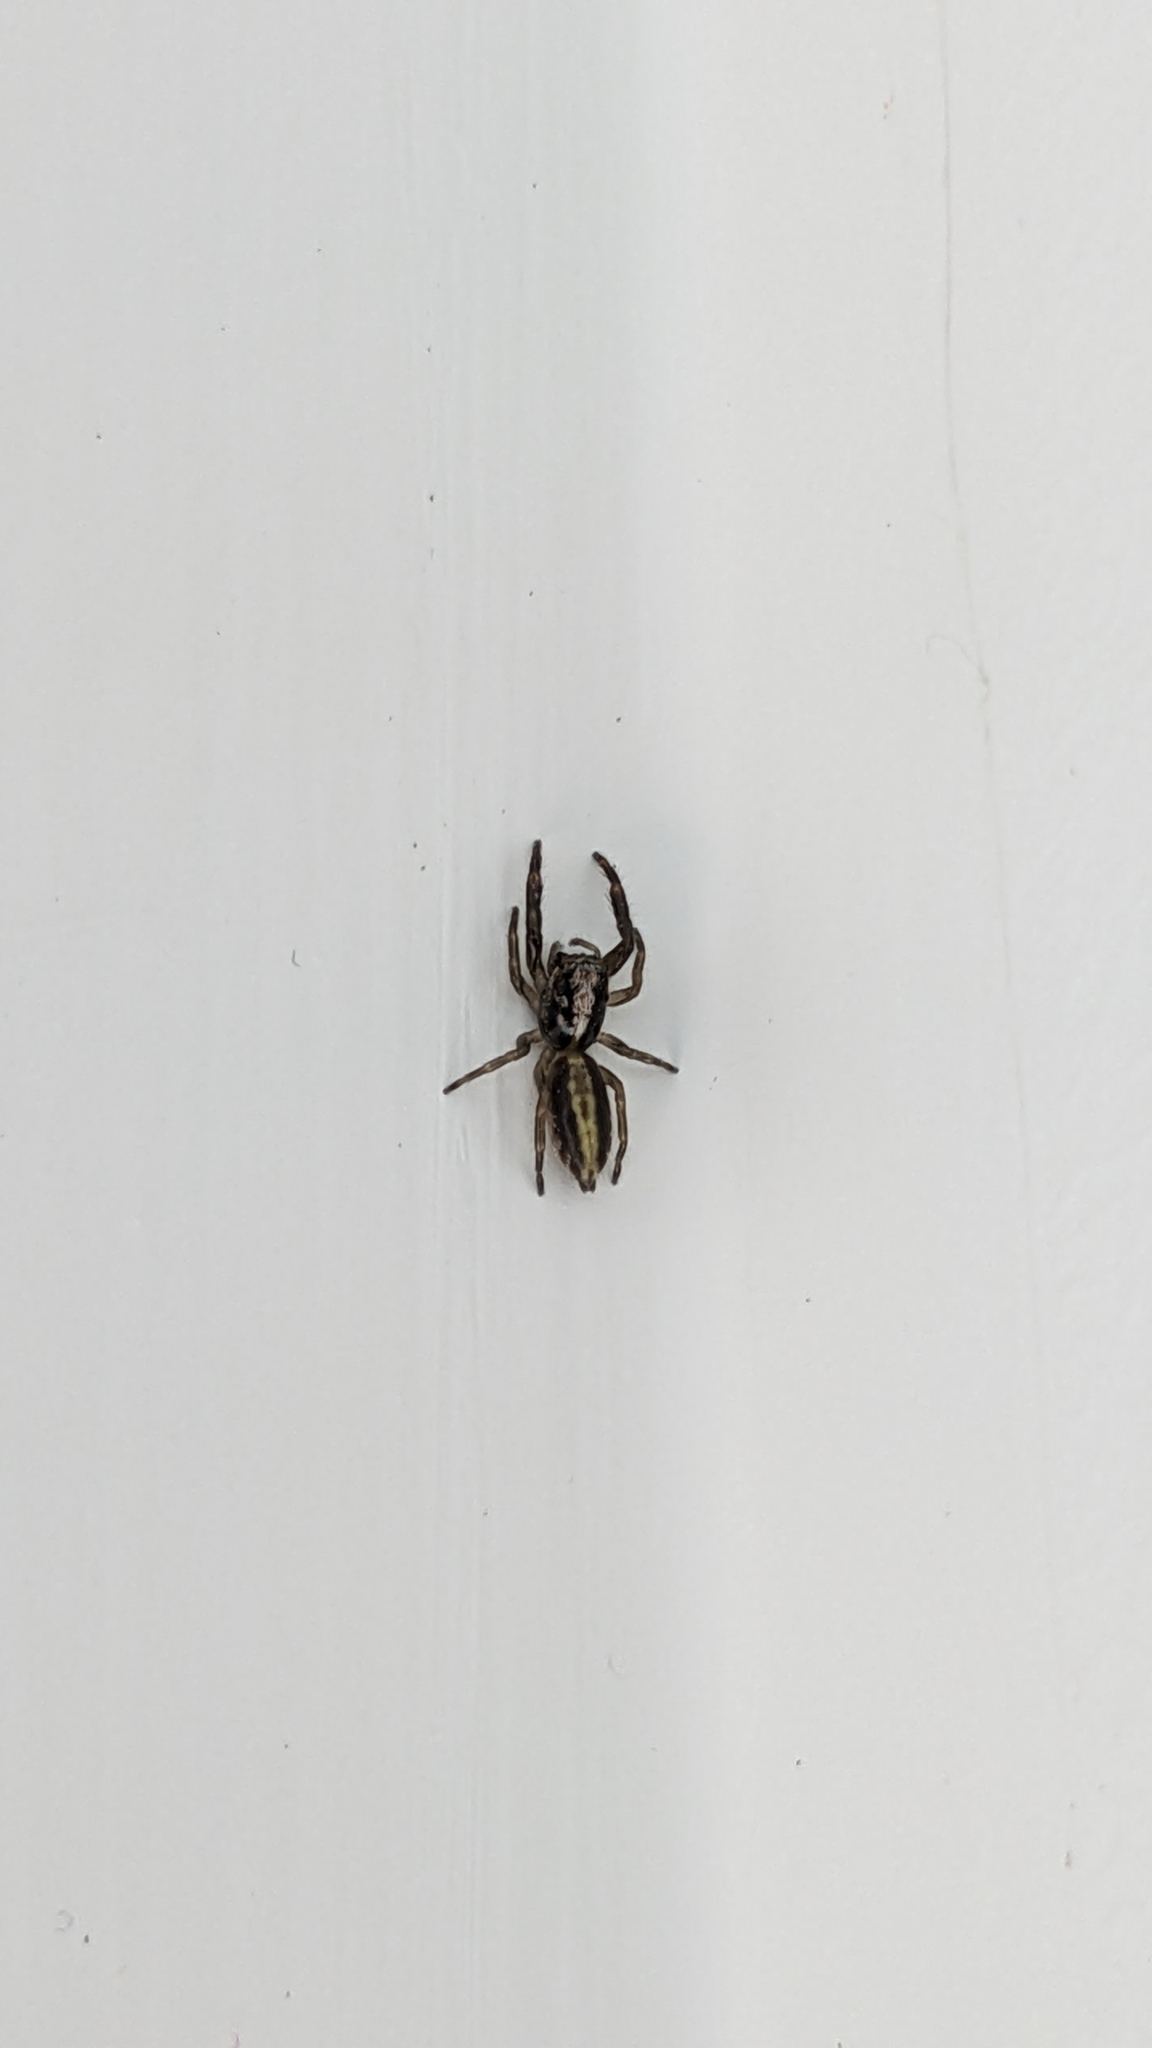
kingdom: Animalia
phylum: Arthropoda
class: Arachnida
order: Araneae
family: Salticidae
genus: Trite
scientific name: Trite planiceps
